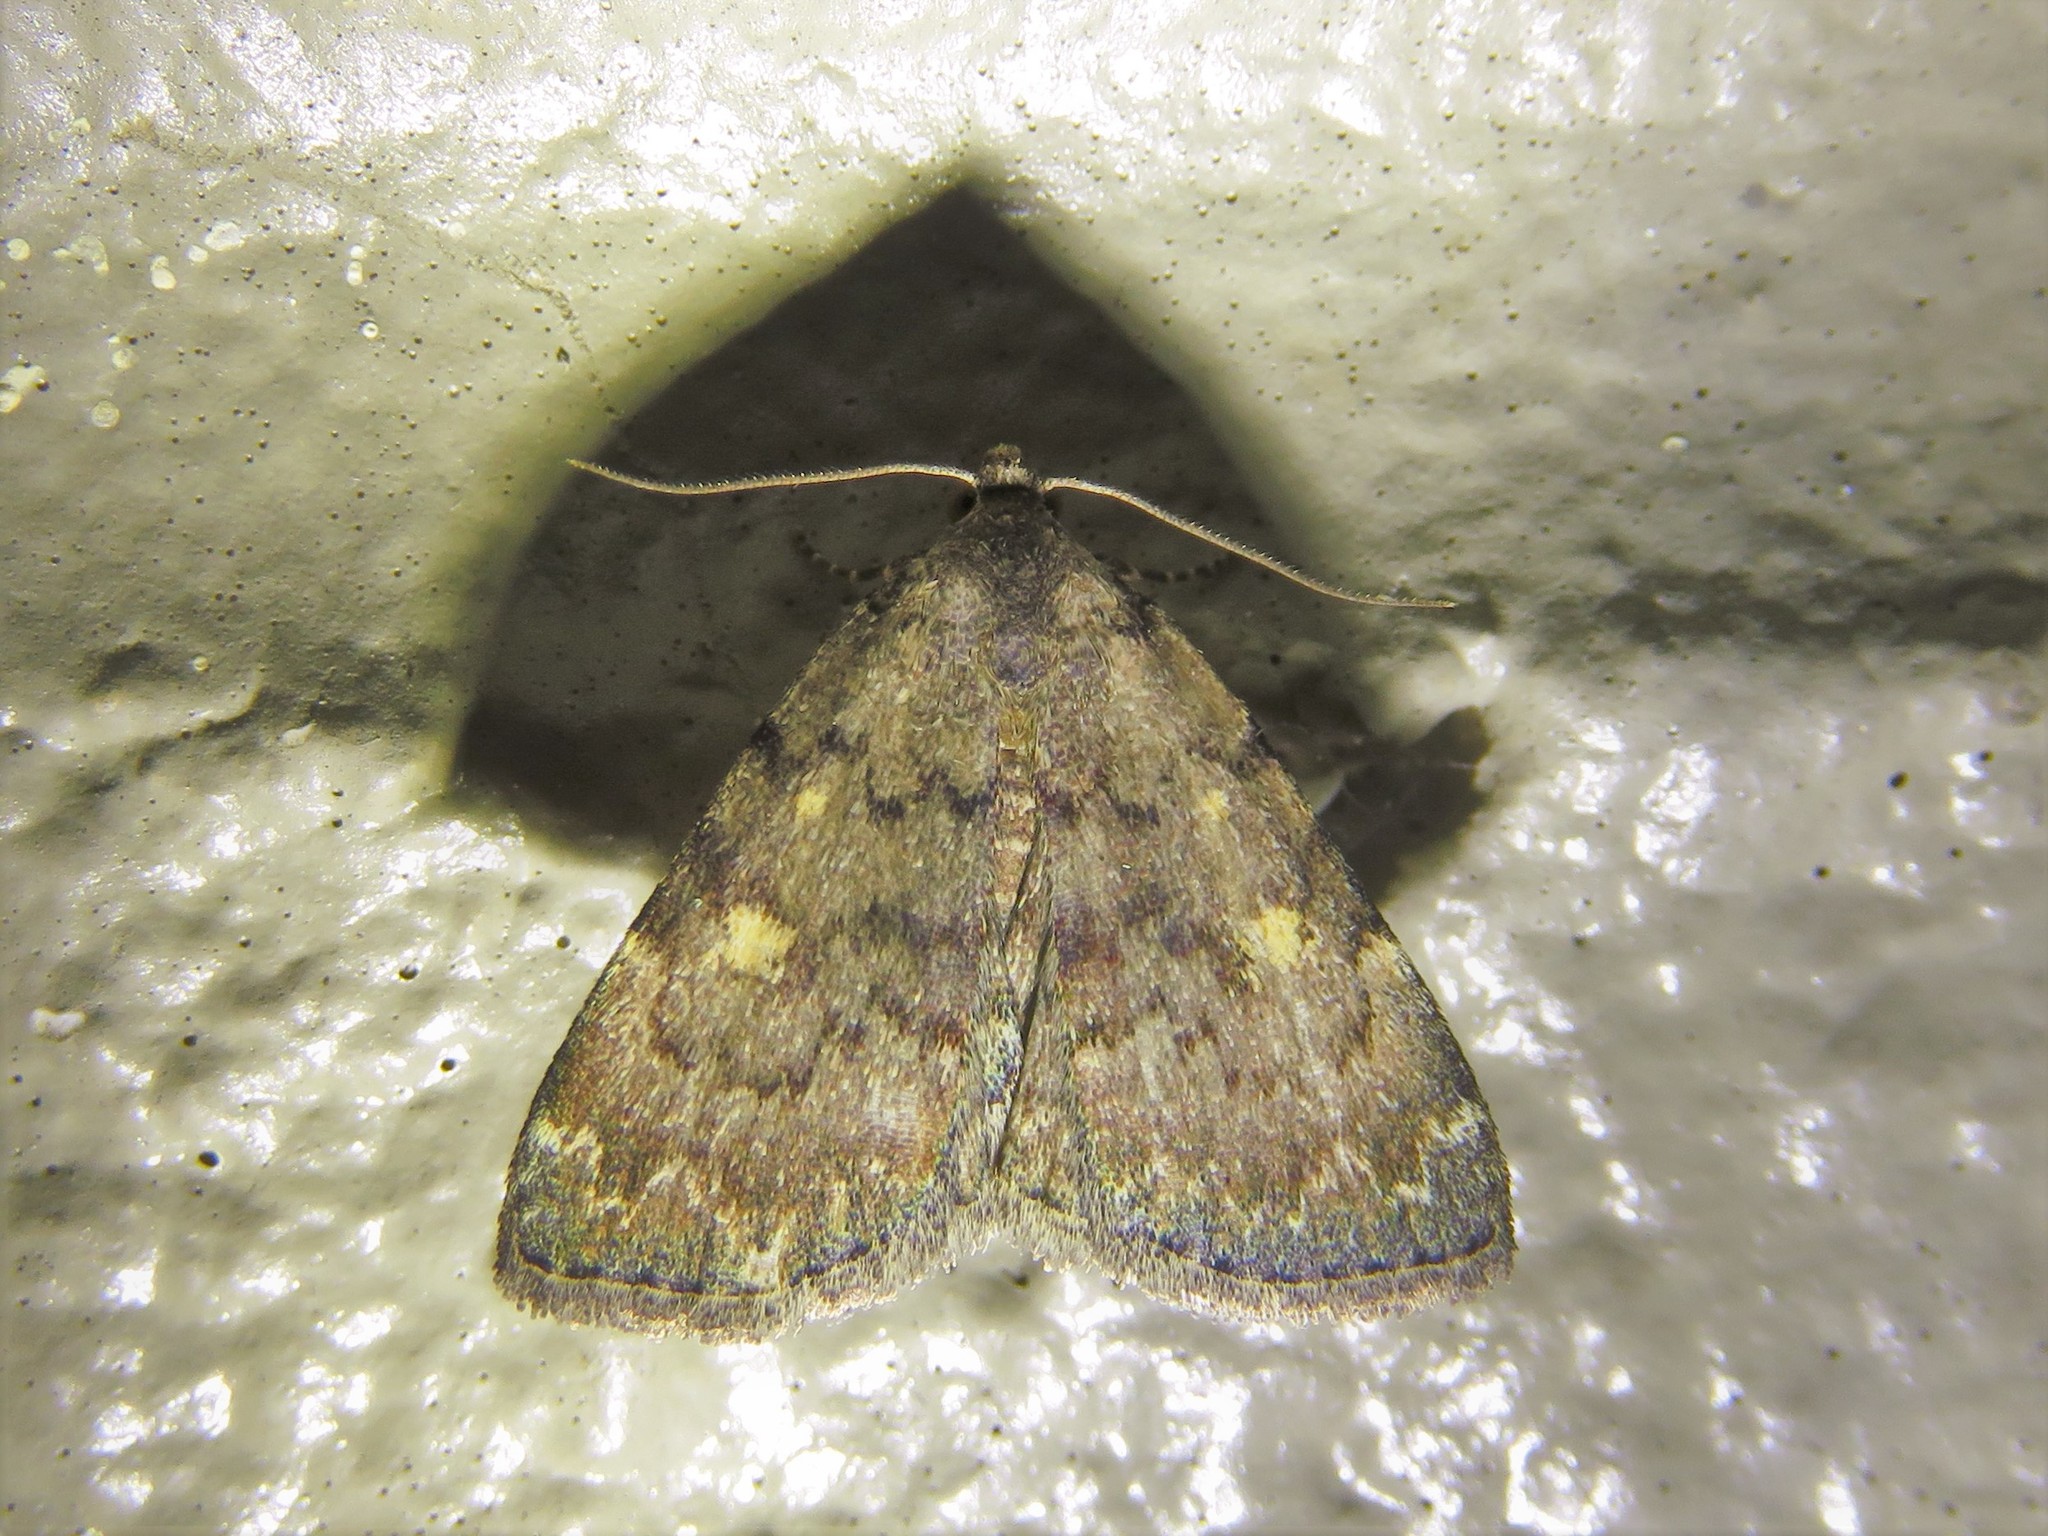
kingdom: Animalia
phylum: Arthropoda
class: Insecta
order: Lepidoptera
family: Erebidae
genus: Idia
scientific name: Idia aemula
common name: Common idia moth
